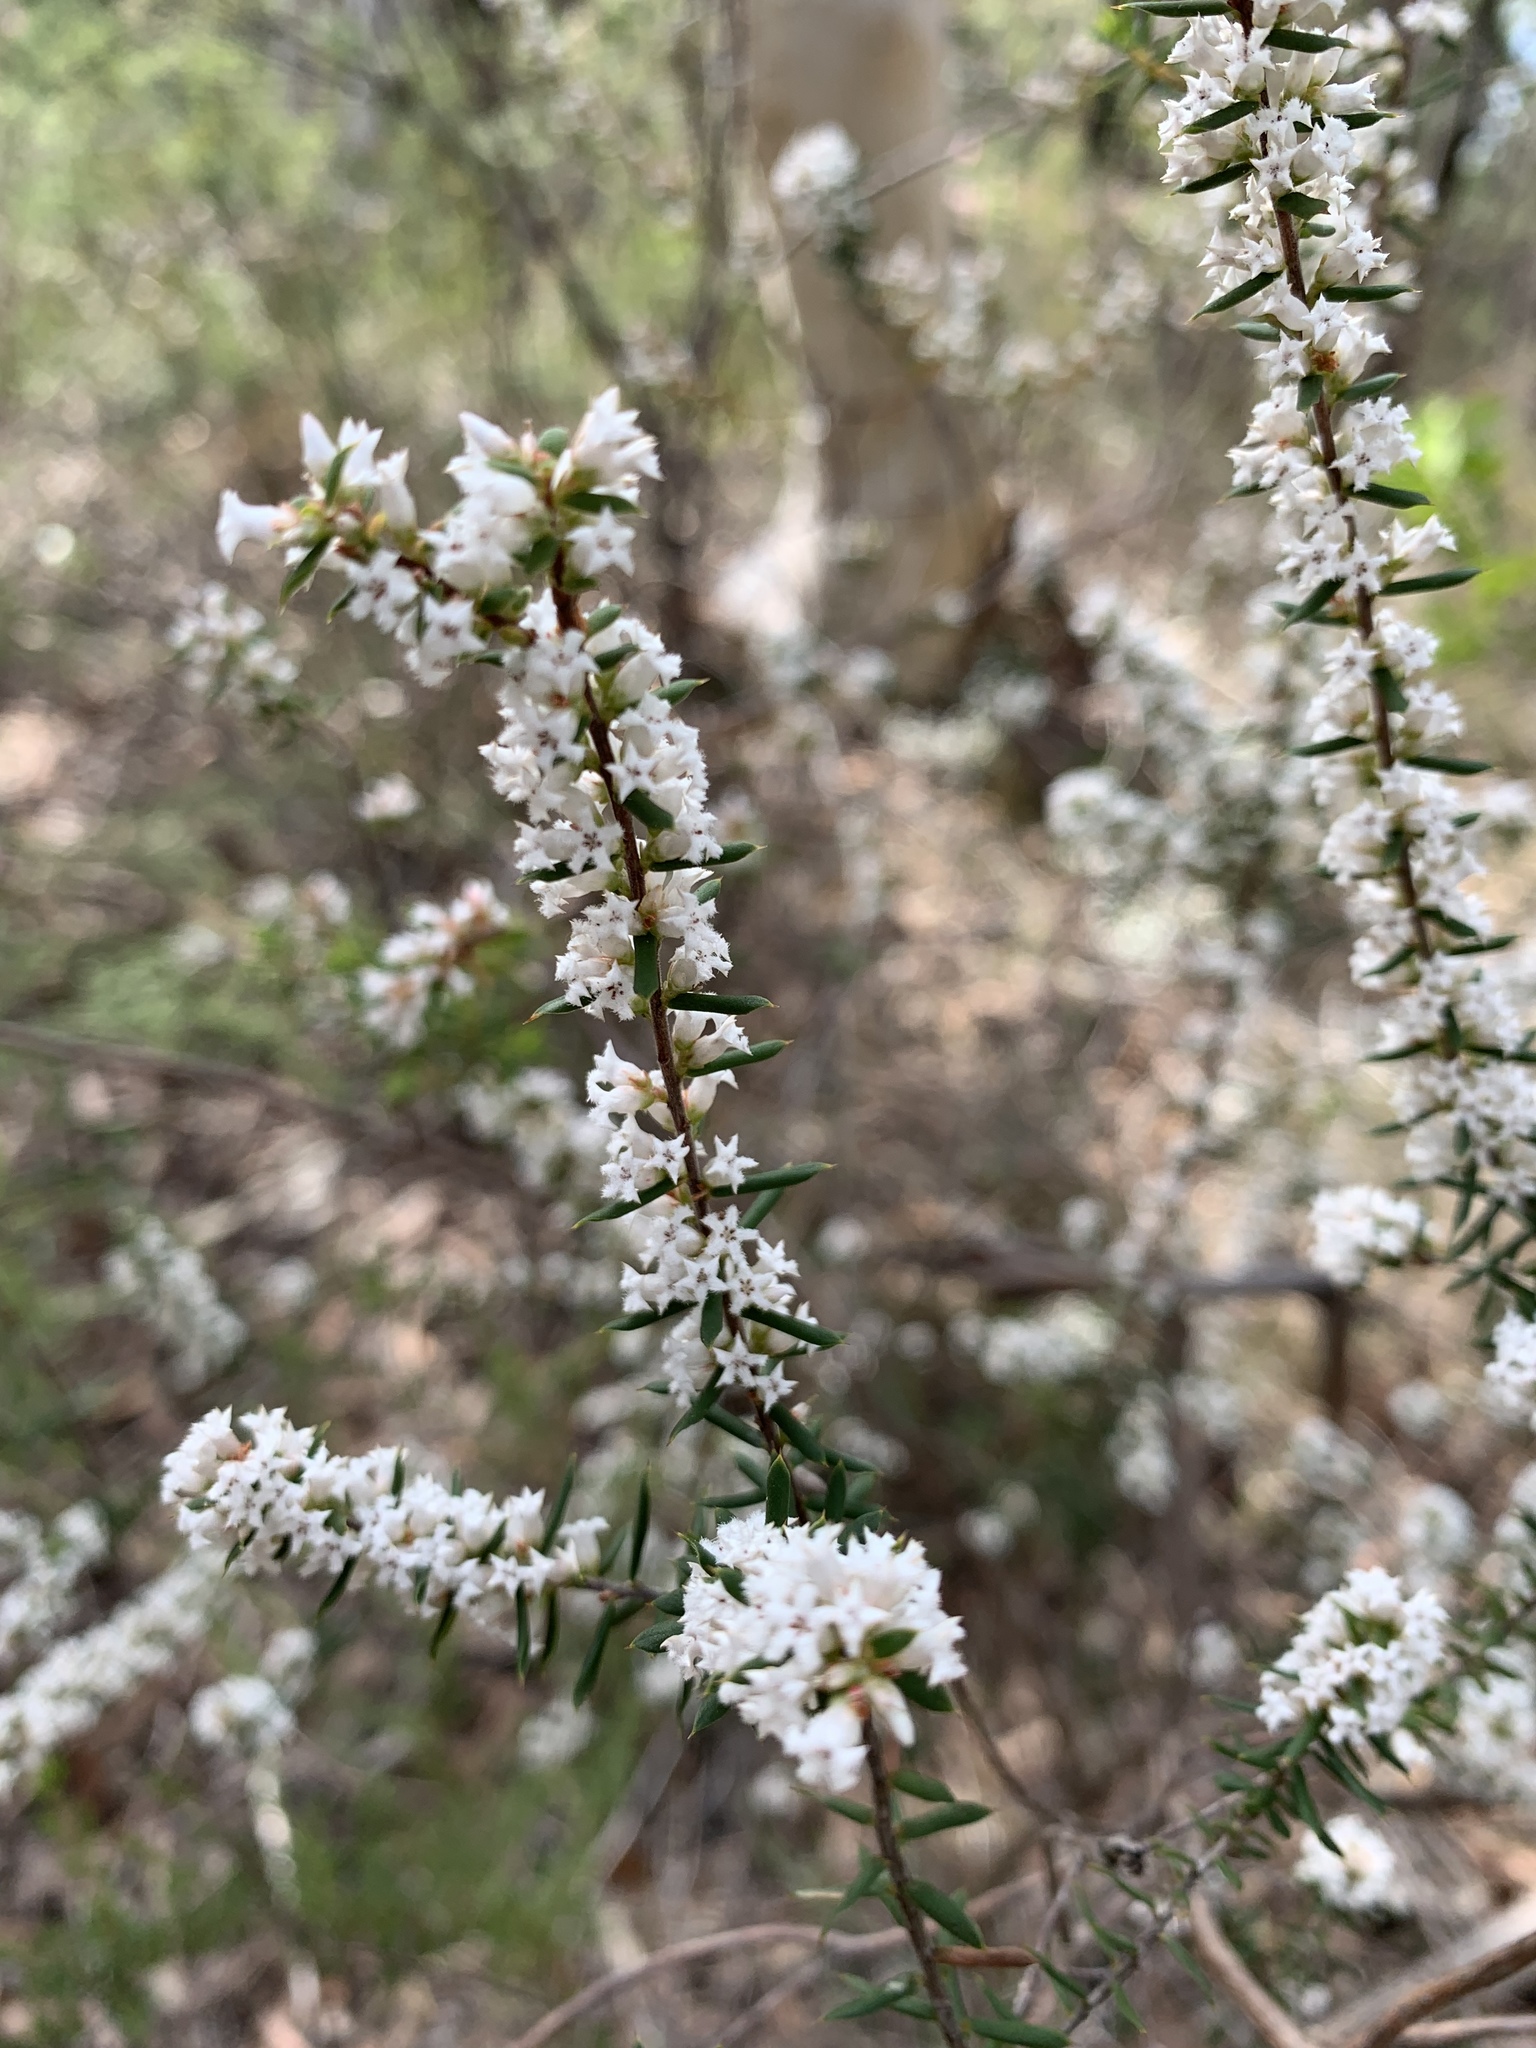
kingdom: Plantae
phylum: Tracheophyta
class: Magnoliopsida
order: Ericales
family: Ericaceae
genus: Styphelia
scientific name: Styphelia ericoides
